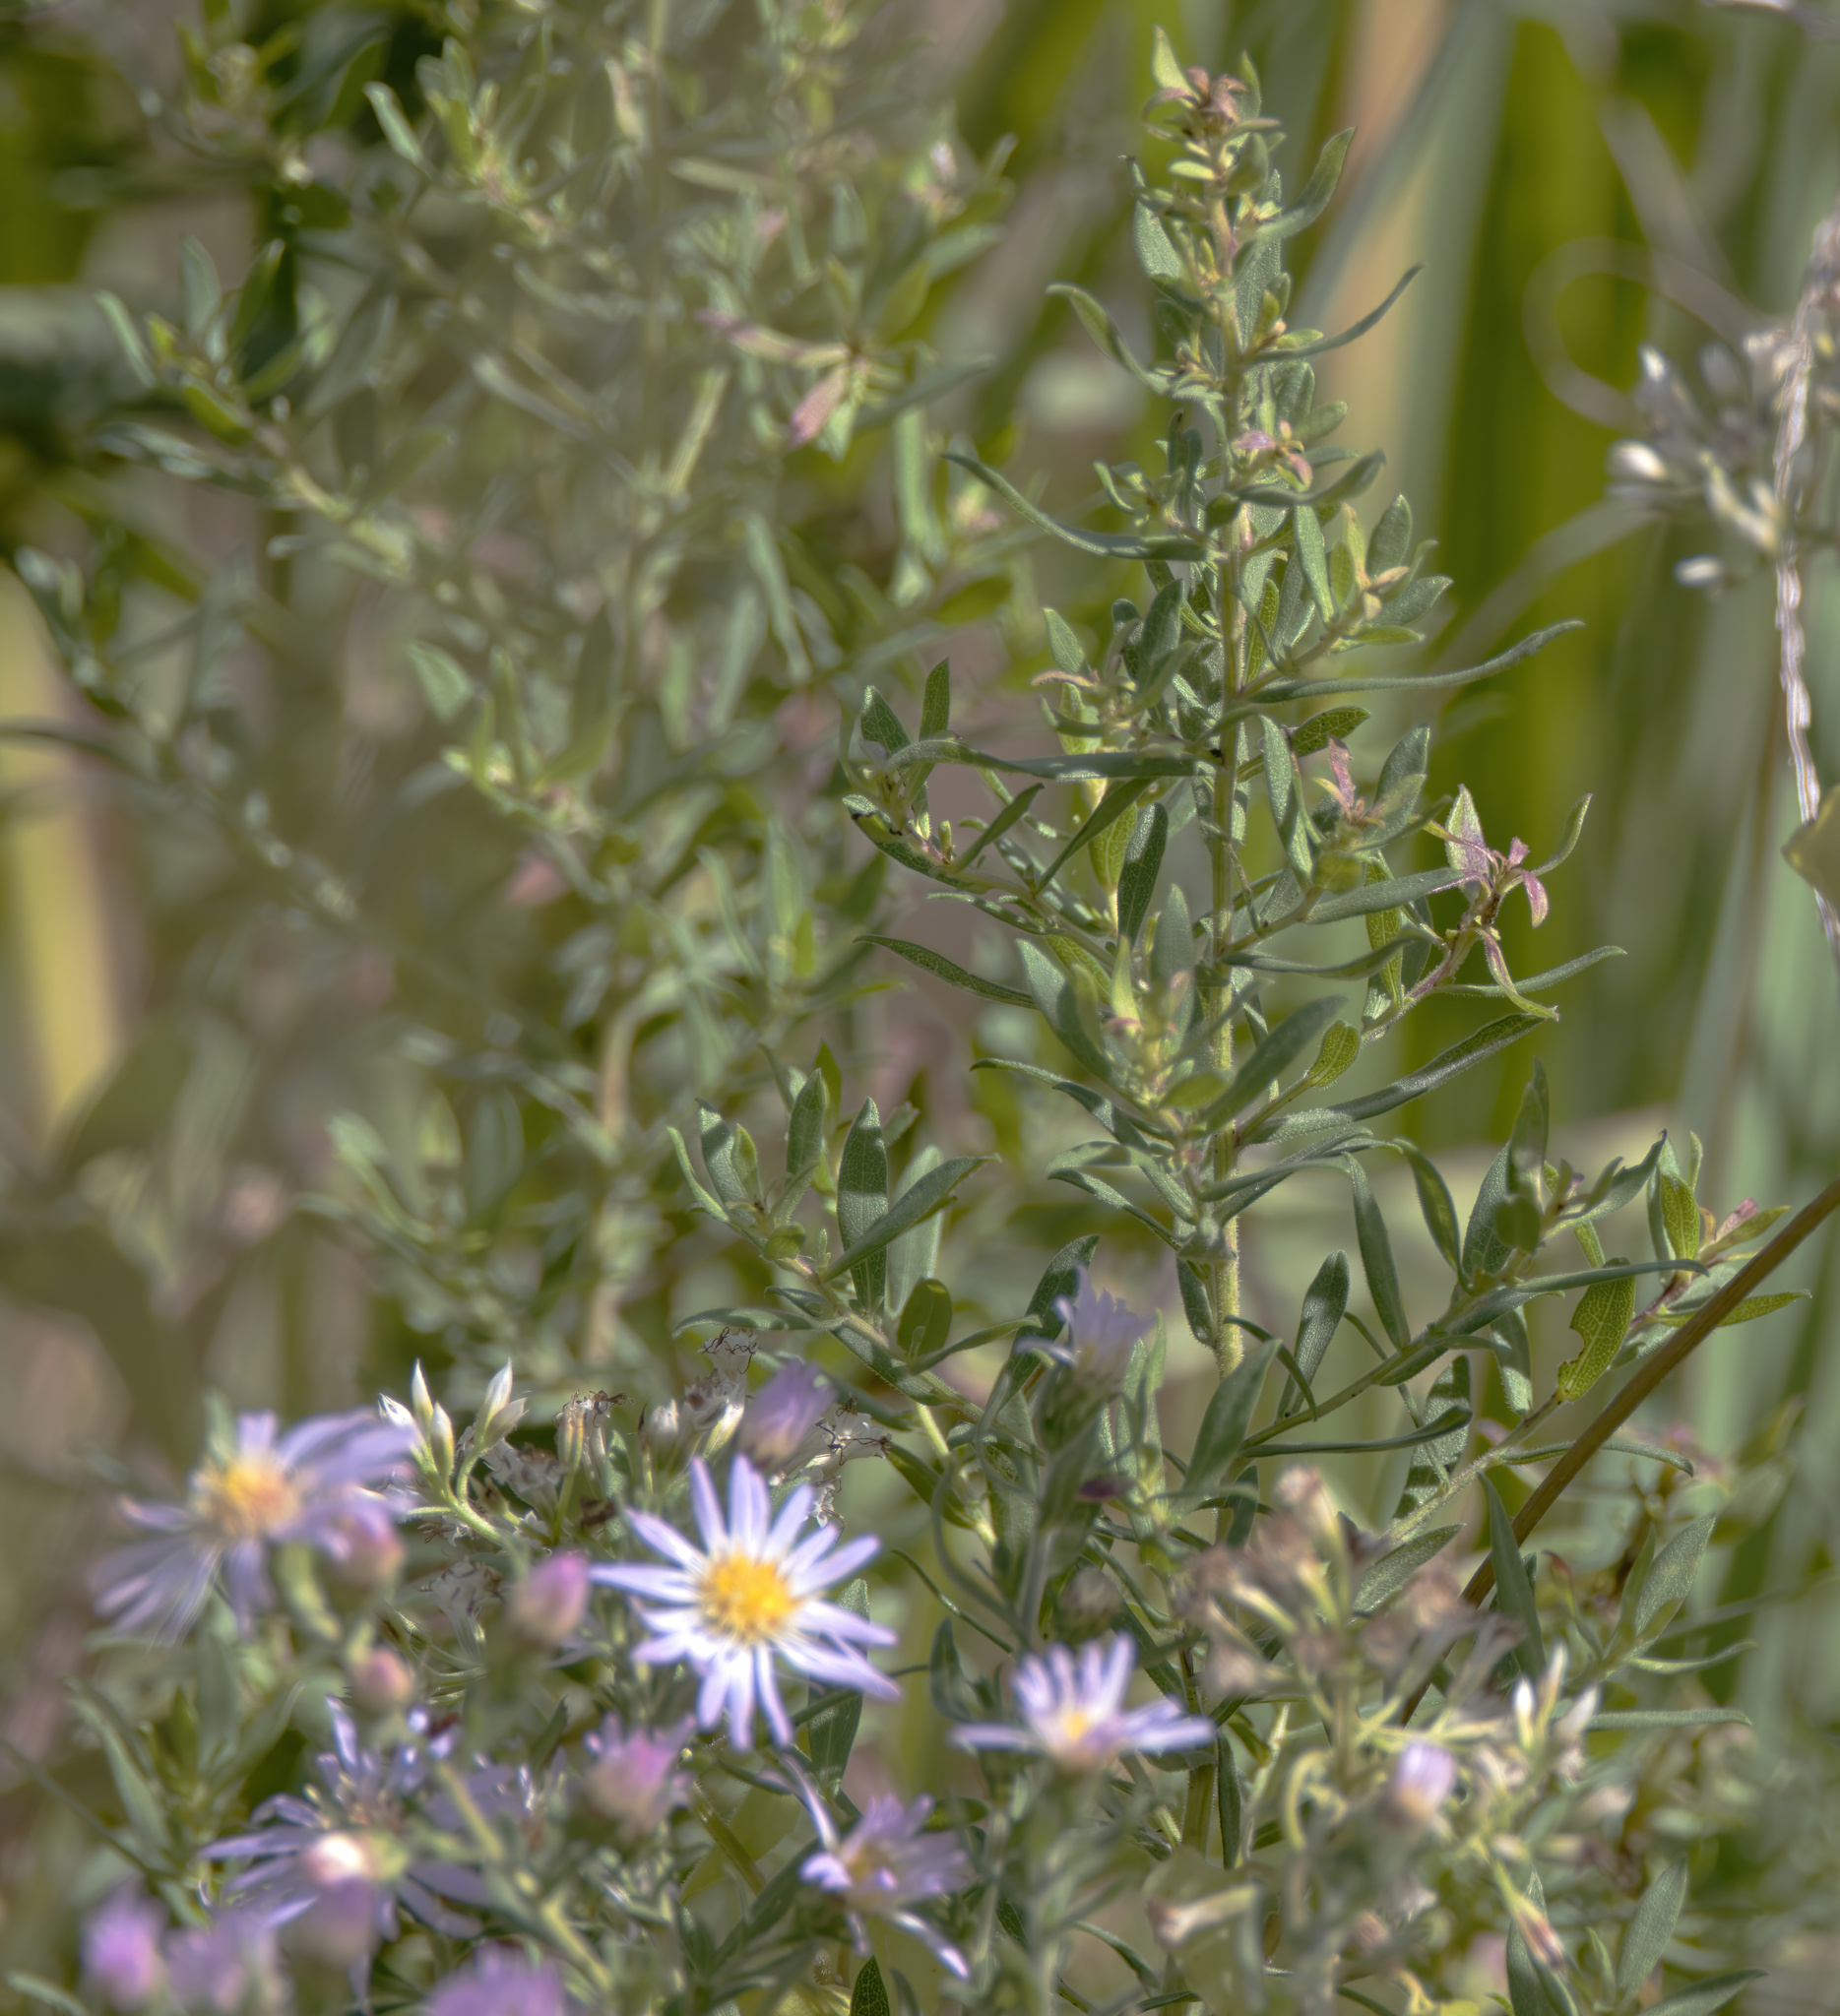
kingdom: Plantae
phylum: Tracheophyta
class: Magnoliopsida
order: Asterales
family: Asteraceae
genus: Symphyotrichum
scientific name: Symphyotrichum praealtum
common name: Willow aster
